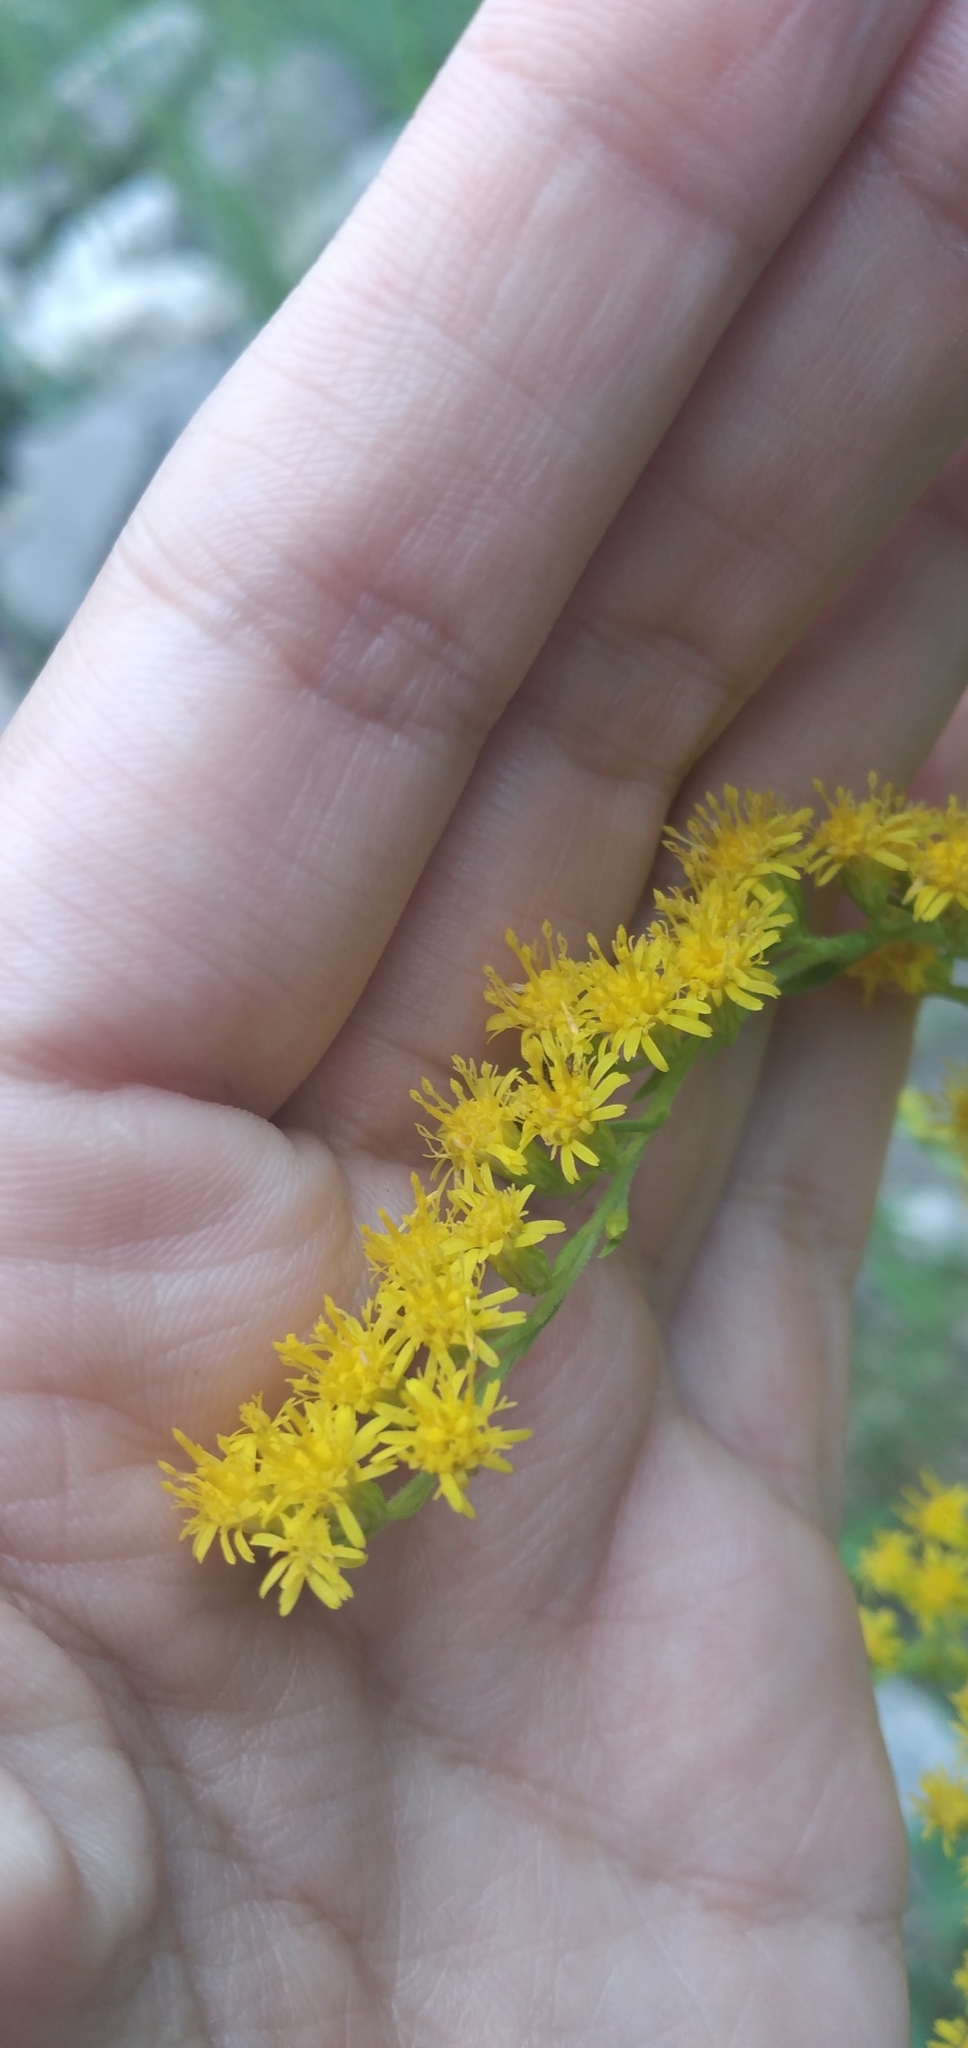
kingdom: Plantae
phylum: Tracheophyta
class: Magnoliopsida
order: Asterales
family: Asteraceae
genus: Solidago
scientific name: Solidago chilensis
